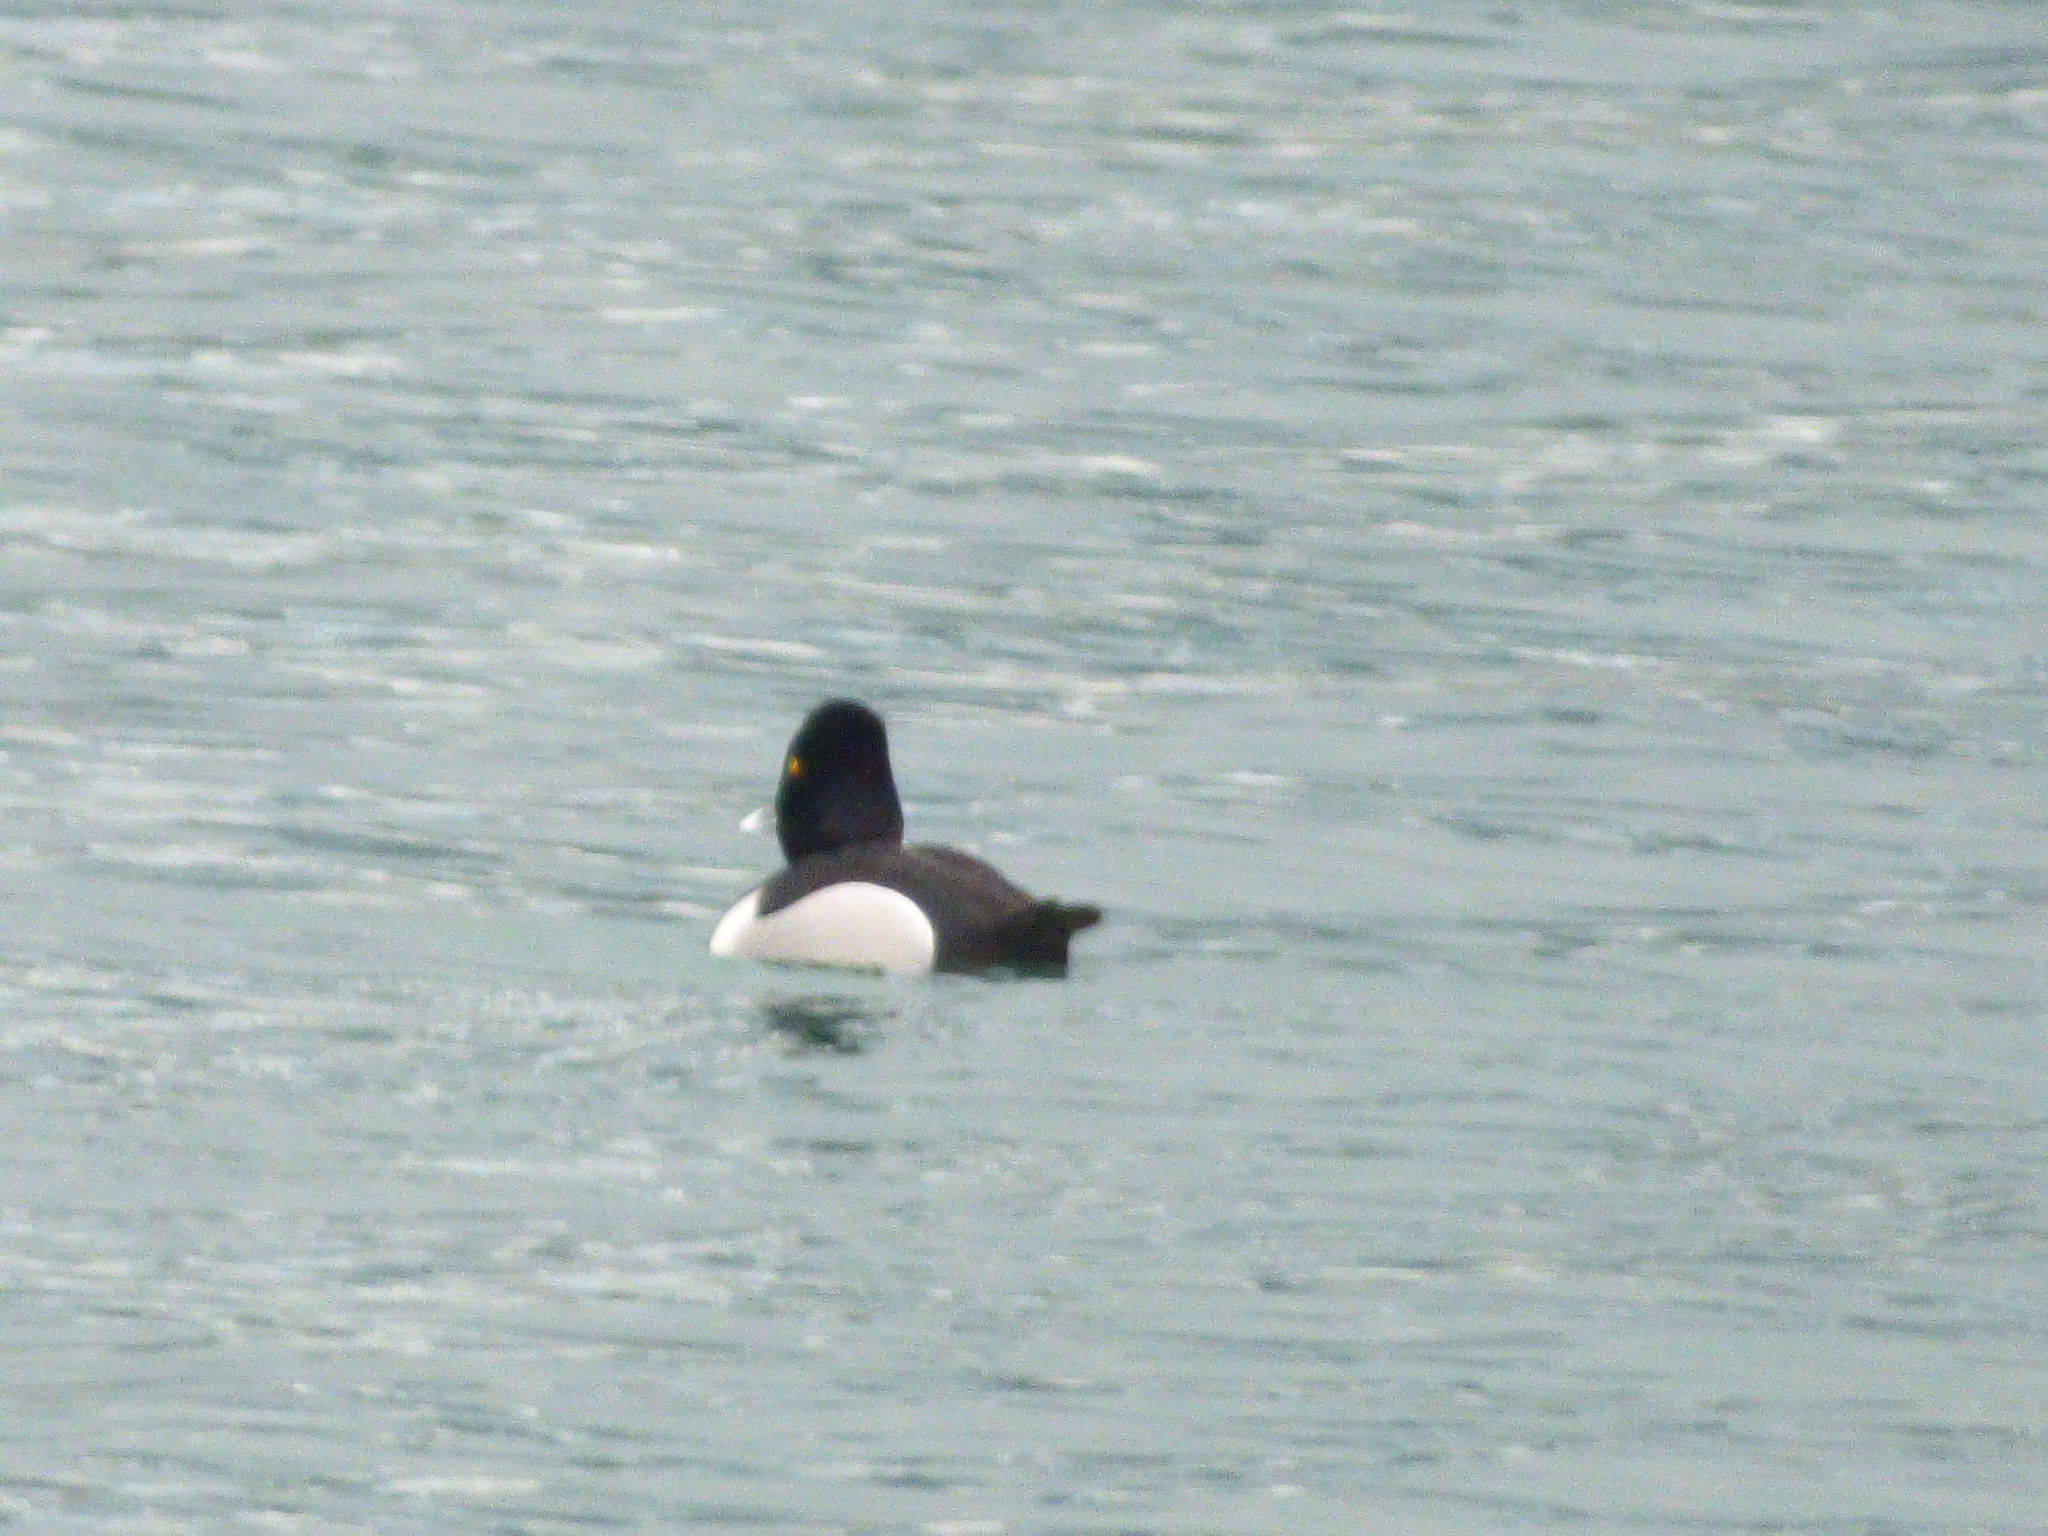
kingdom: Animalia
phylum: Chordata
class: Aves
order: Anseriformes
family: Anatidae
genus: Aythya
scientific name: Aythya collaris
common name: Ring-necked duck
